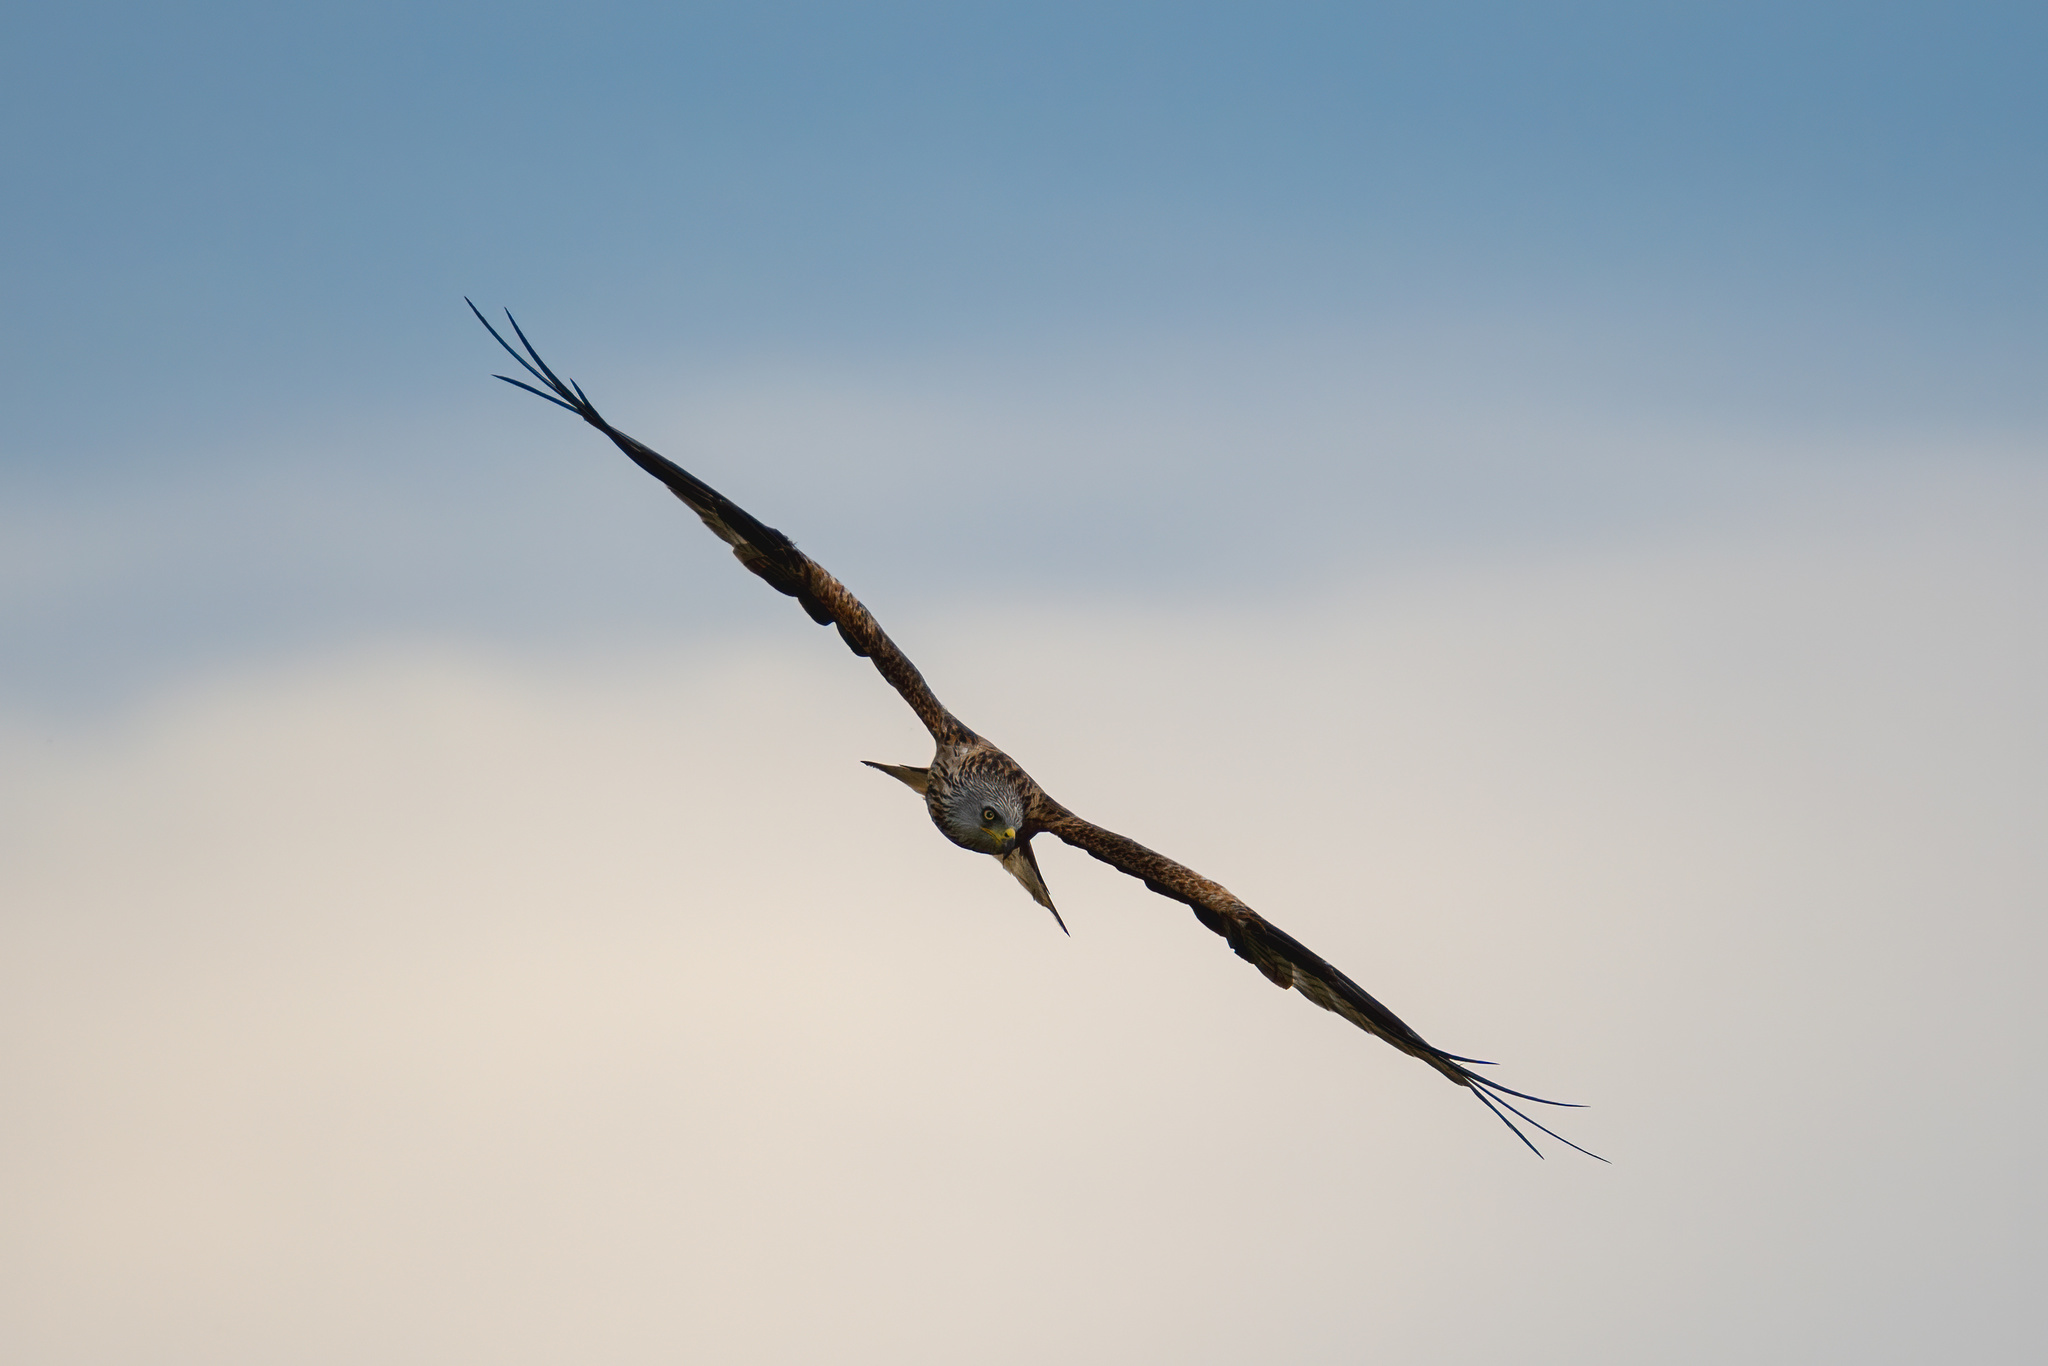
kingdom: Animalia
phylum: Chordata
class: Aves
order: Accipitriformes
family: Accipitridae
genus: Milvus
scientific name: Milvus milvus
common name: Red kite
